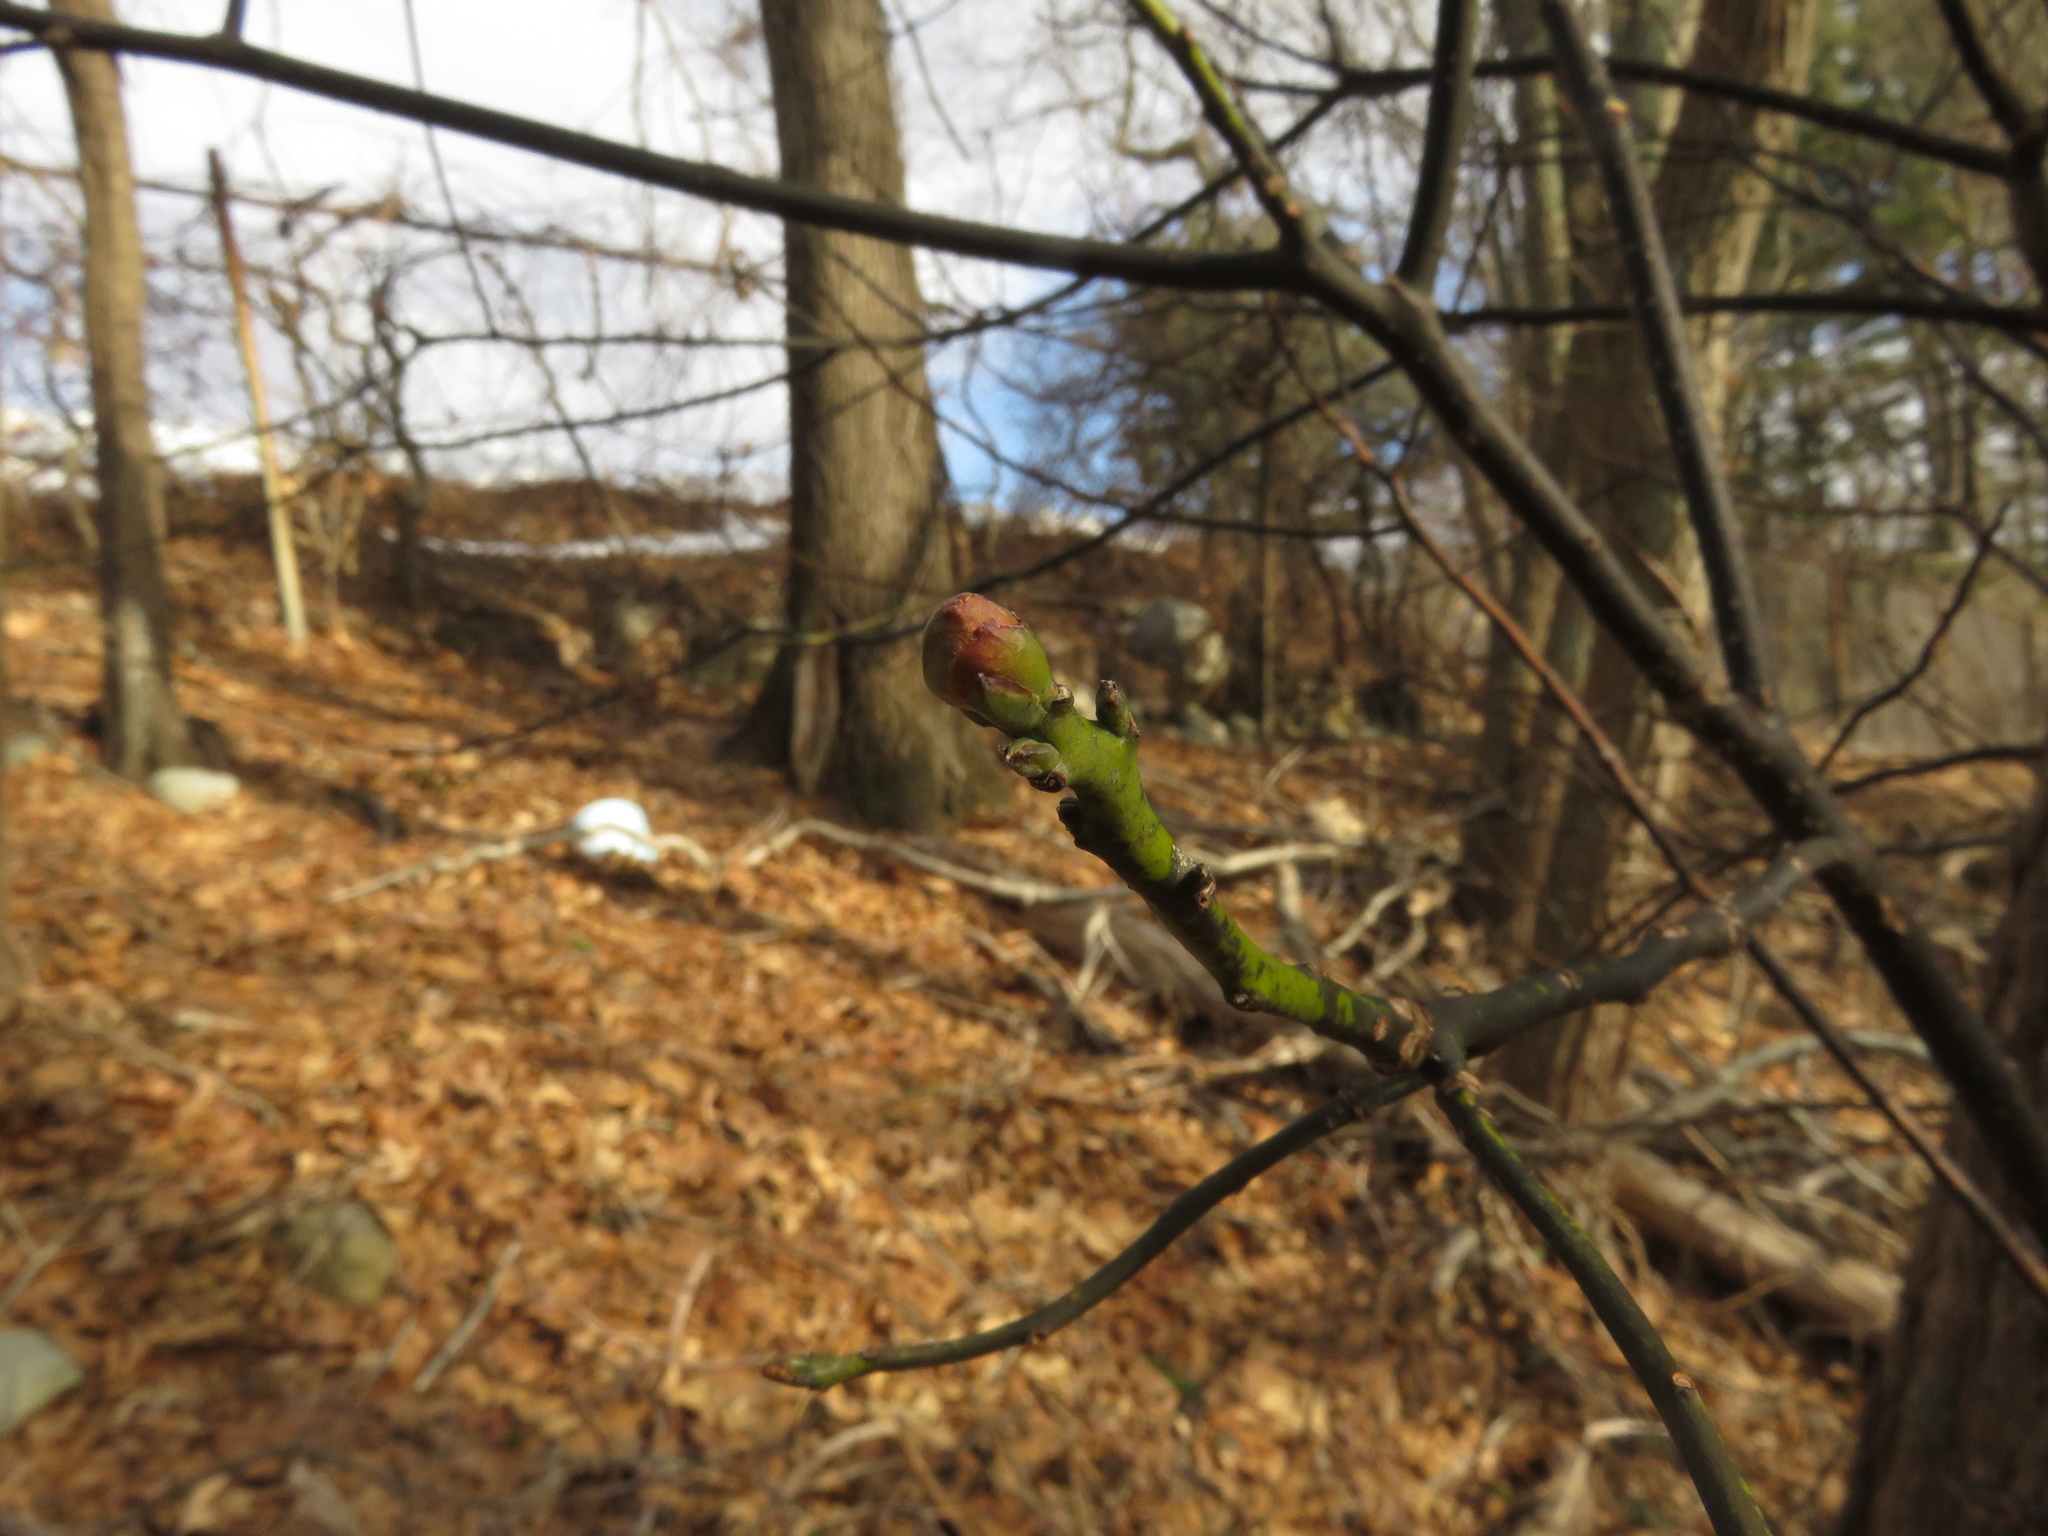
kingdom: Plantae
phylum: Tracheophyta
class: Magnoliopsida
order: Laurales
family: Lauraceae
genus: Sassafras
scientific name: Sassafras albidum
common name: Sassafras
